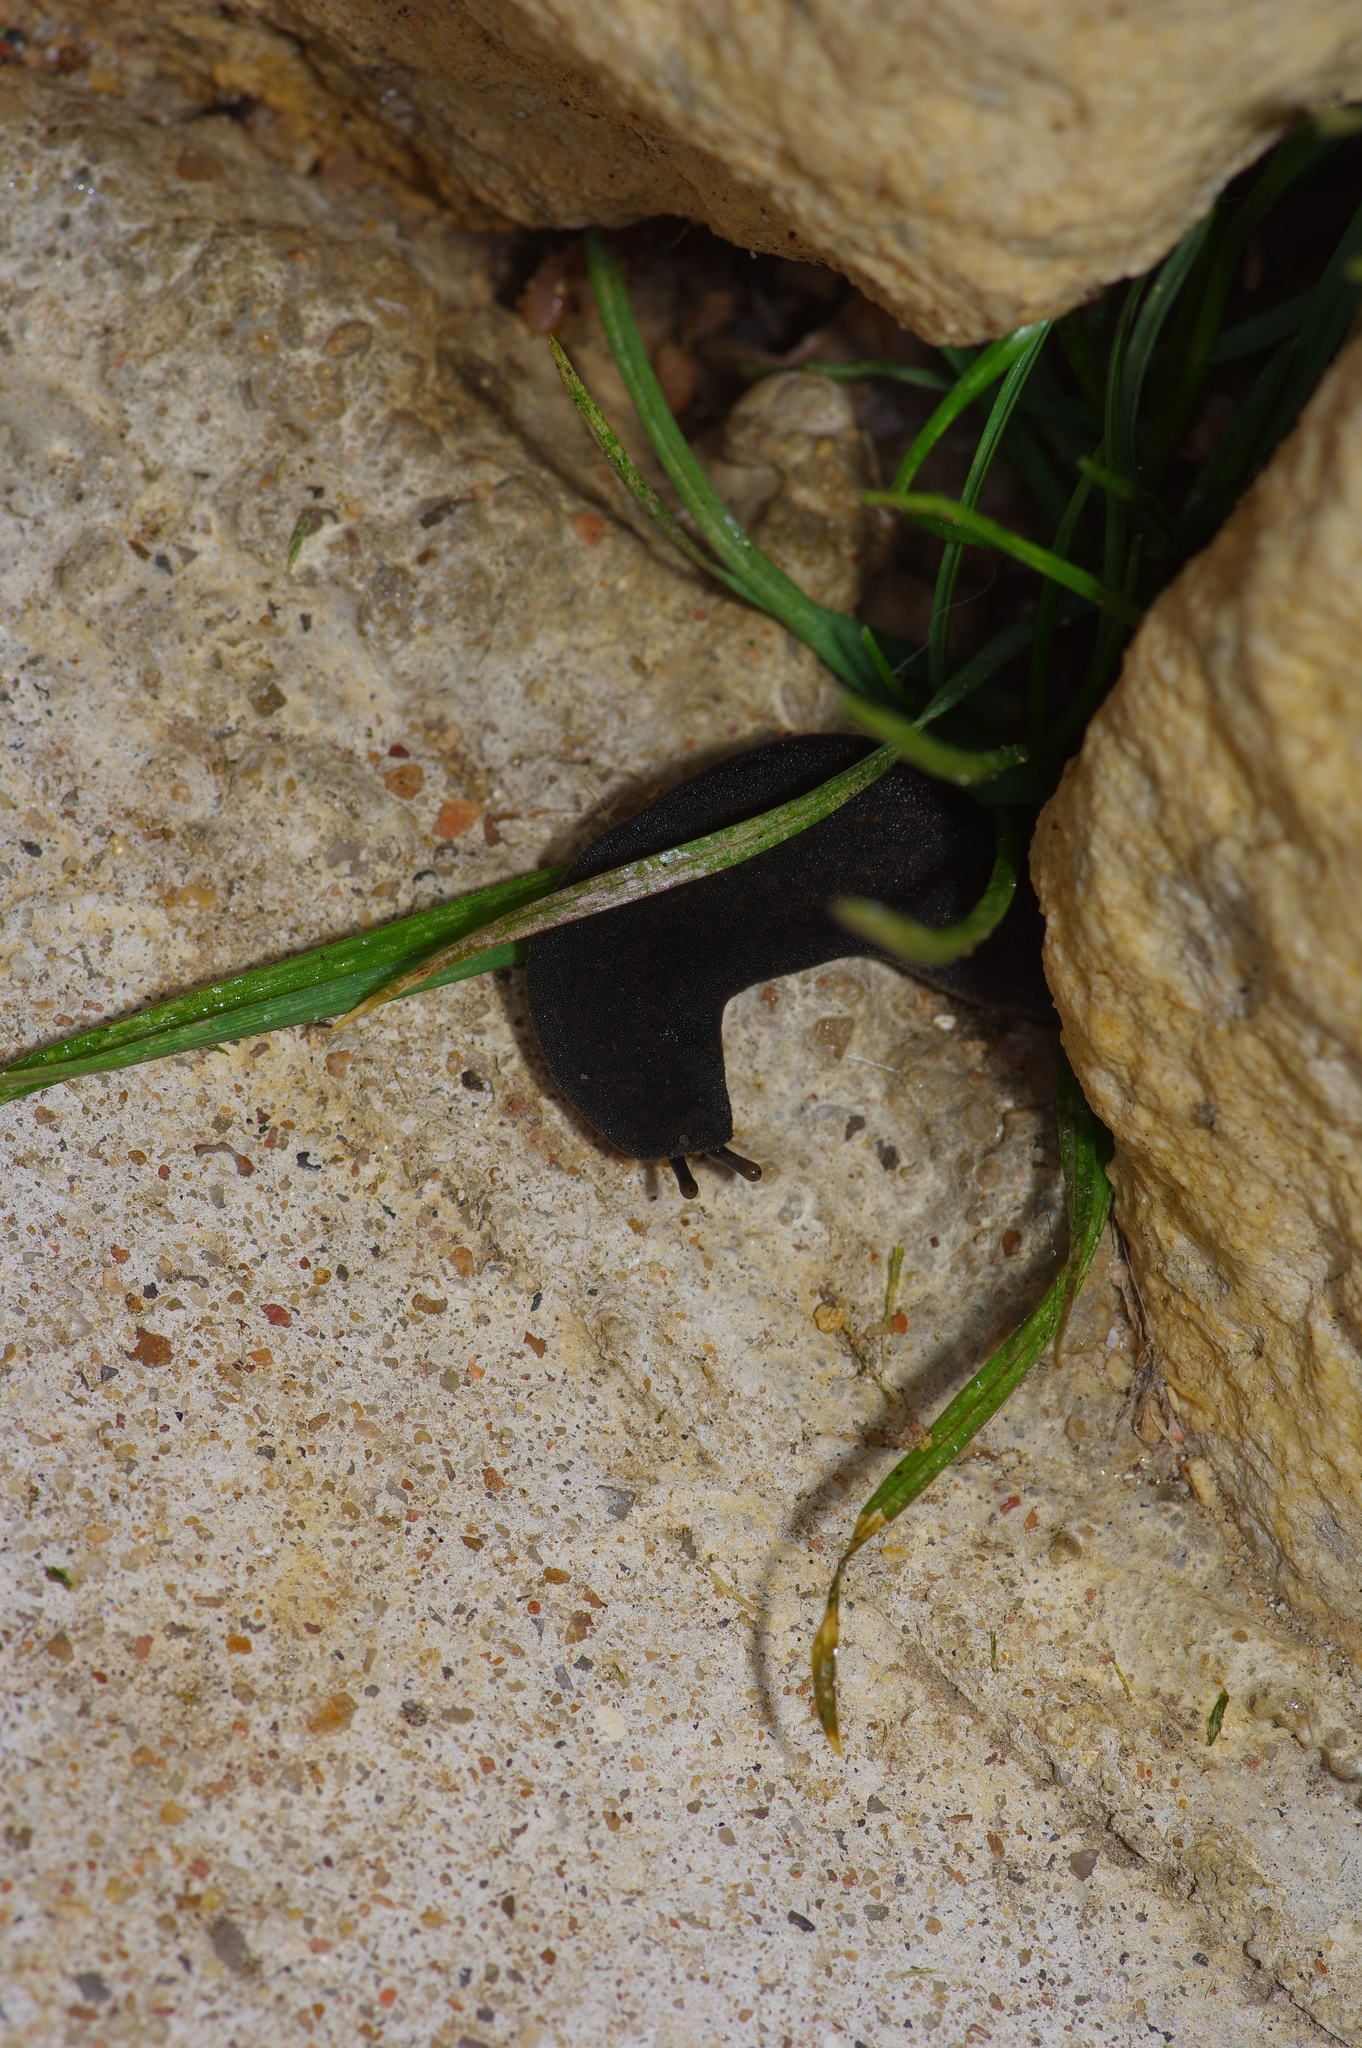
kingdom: Animalia
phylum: Mollusca
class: Gastropoda
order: Systellommatophora
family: Veronicellidae
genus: Belocaulus
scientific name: Belocaulus angustipes
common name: Black velvet leatherleaf slug
